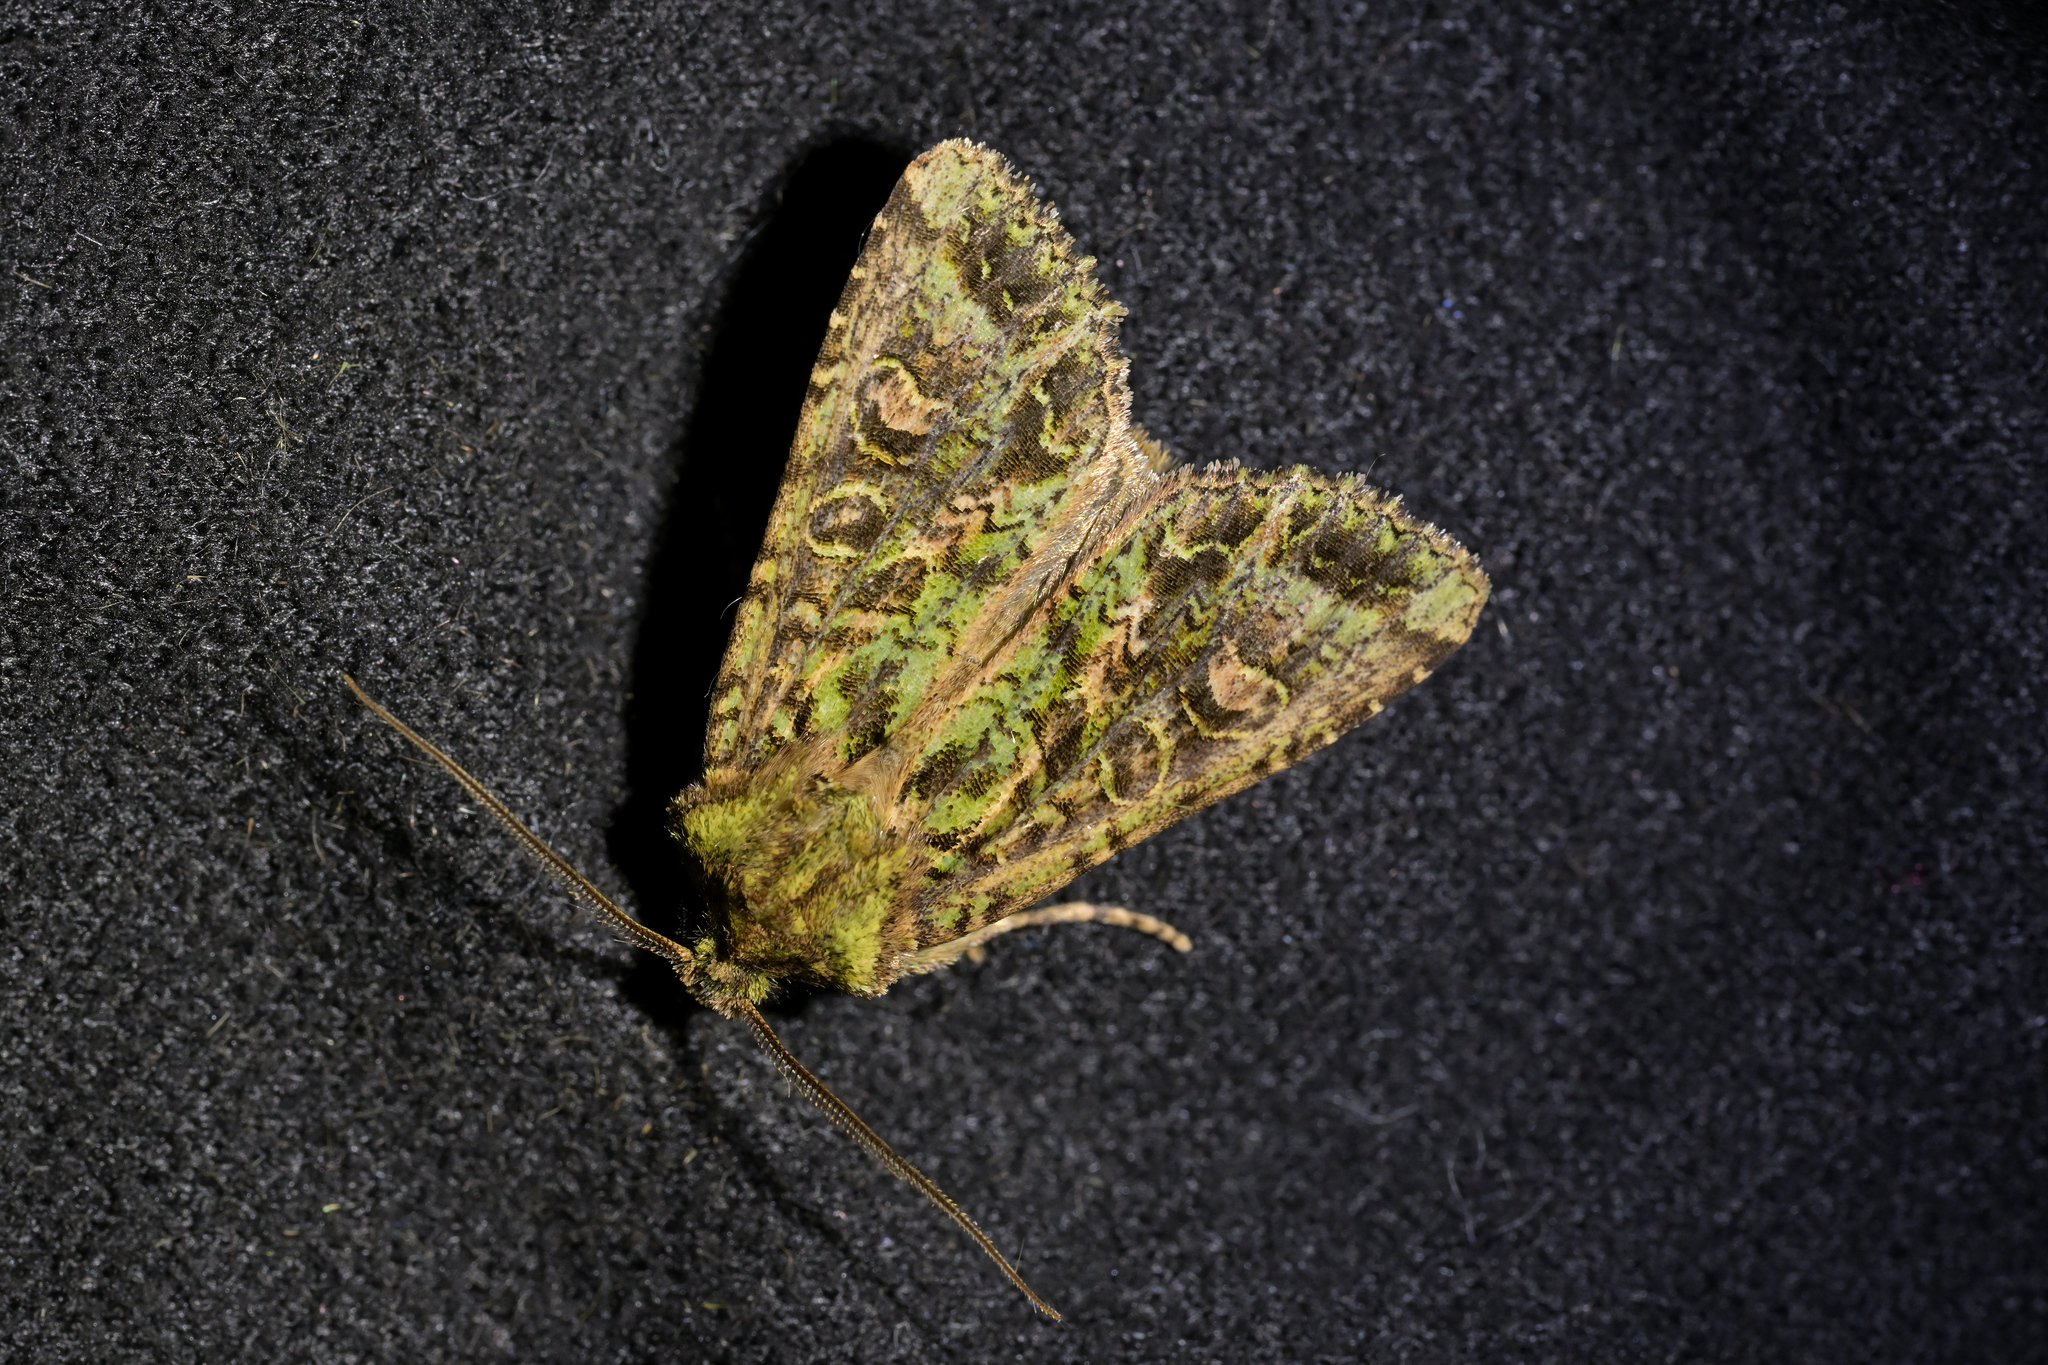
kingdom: Animalia
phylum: Arthropoda
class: Insecta
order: Lepidoptera
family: Noctuidae
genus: Ichneutica
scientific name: Ichneutica
